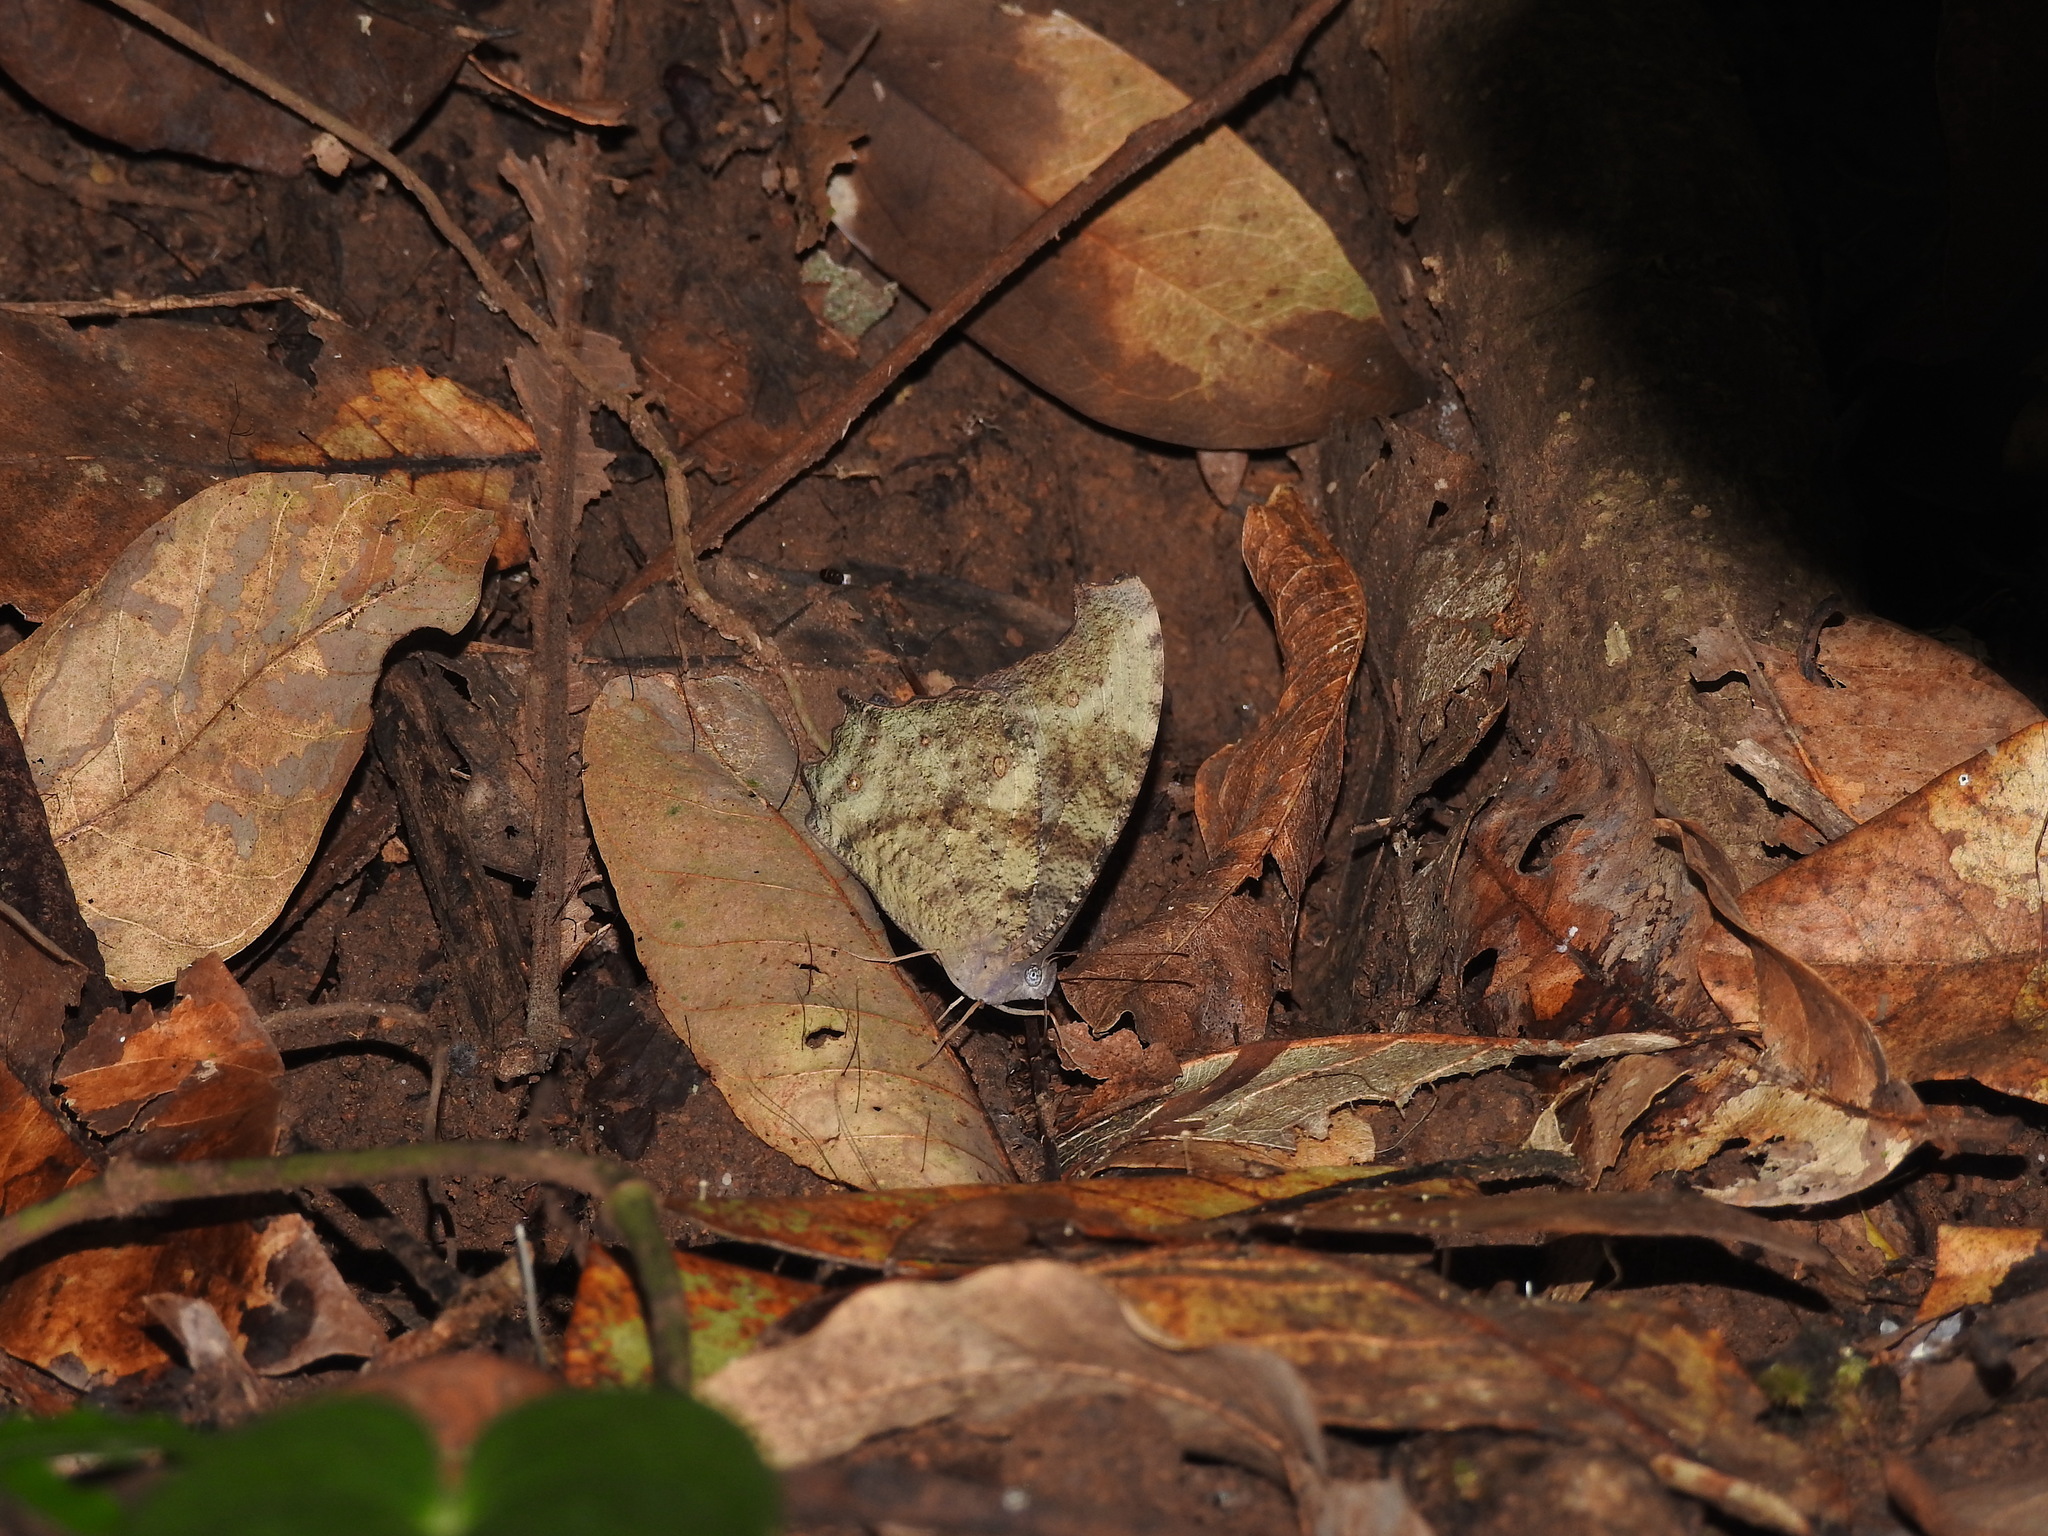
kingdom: Animalia
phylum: Arthropoda
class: Insecta
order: Lepidoptera
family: Nymphalidae
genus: Melanitis
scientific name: Melanitis leda
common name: Twilight brown
